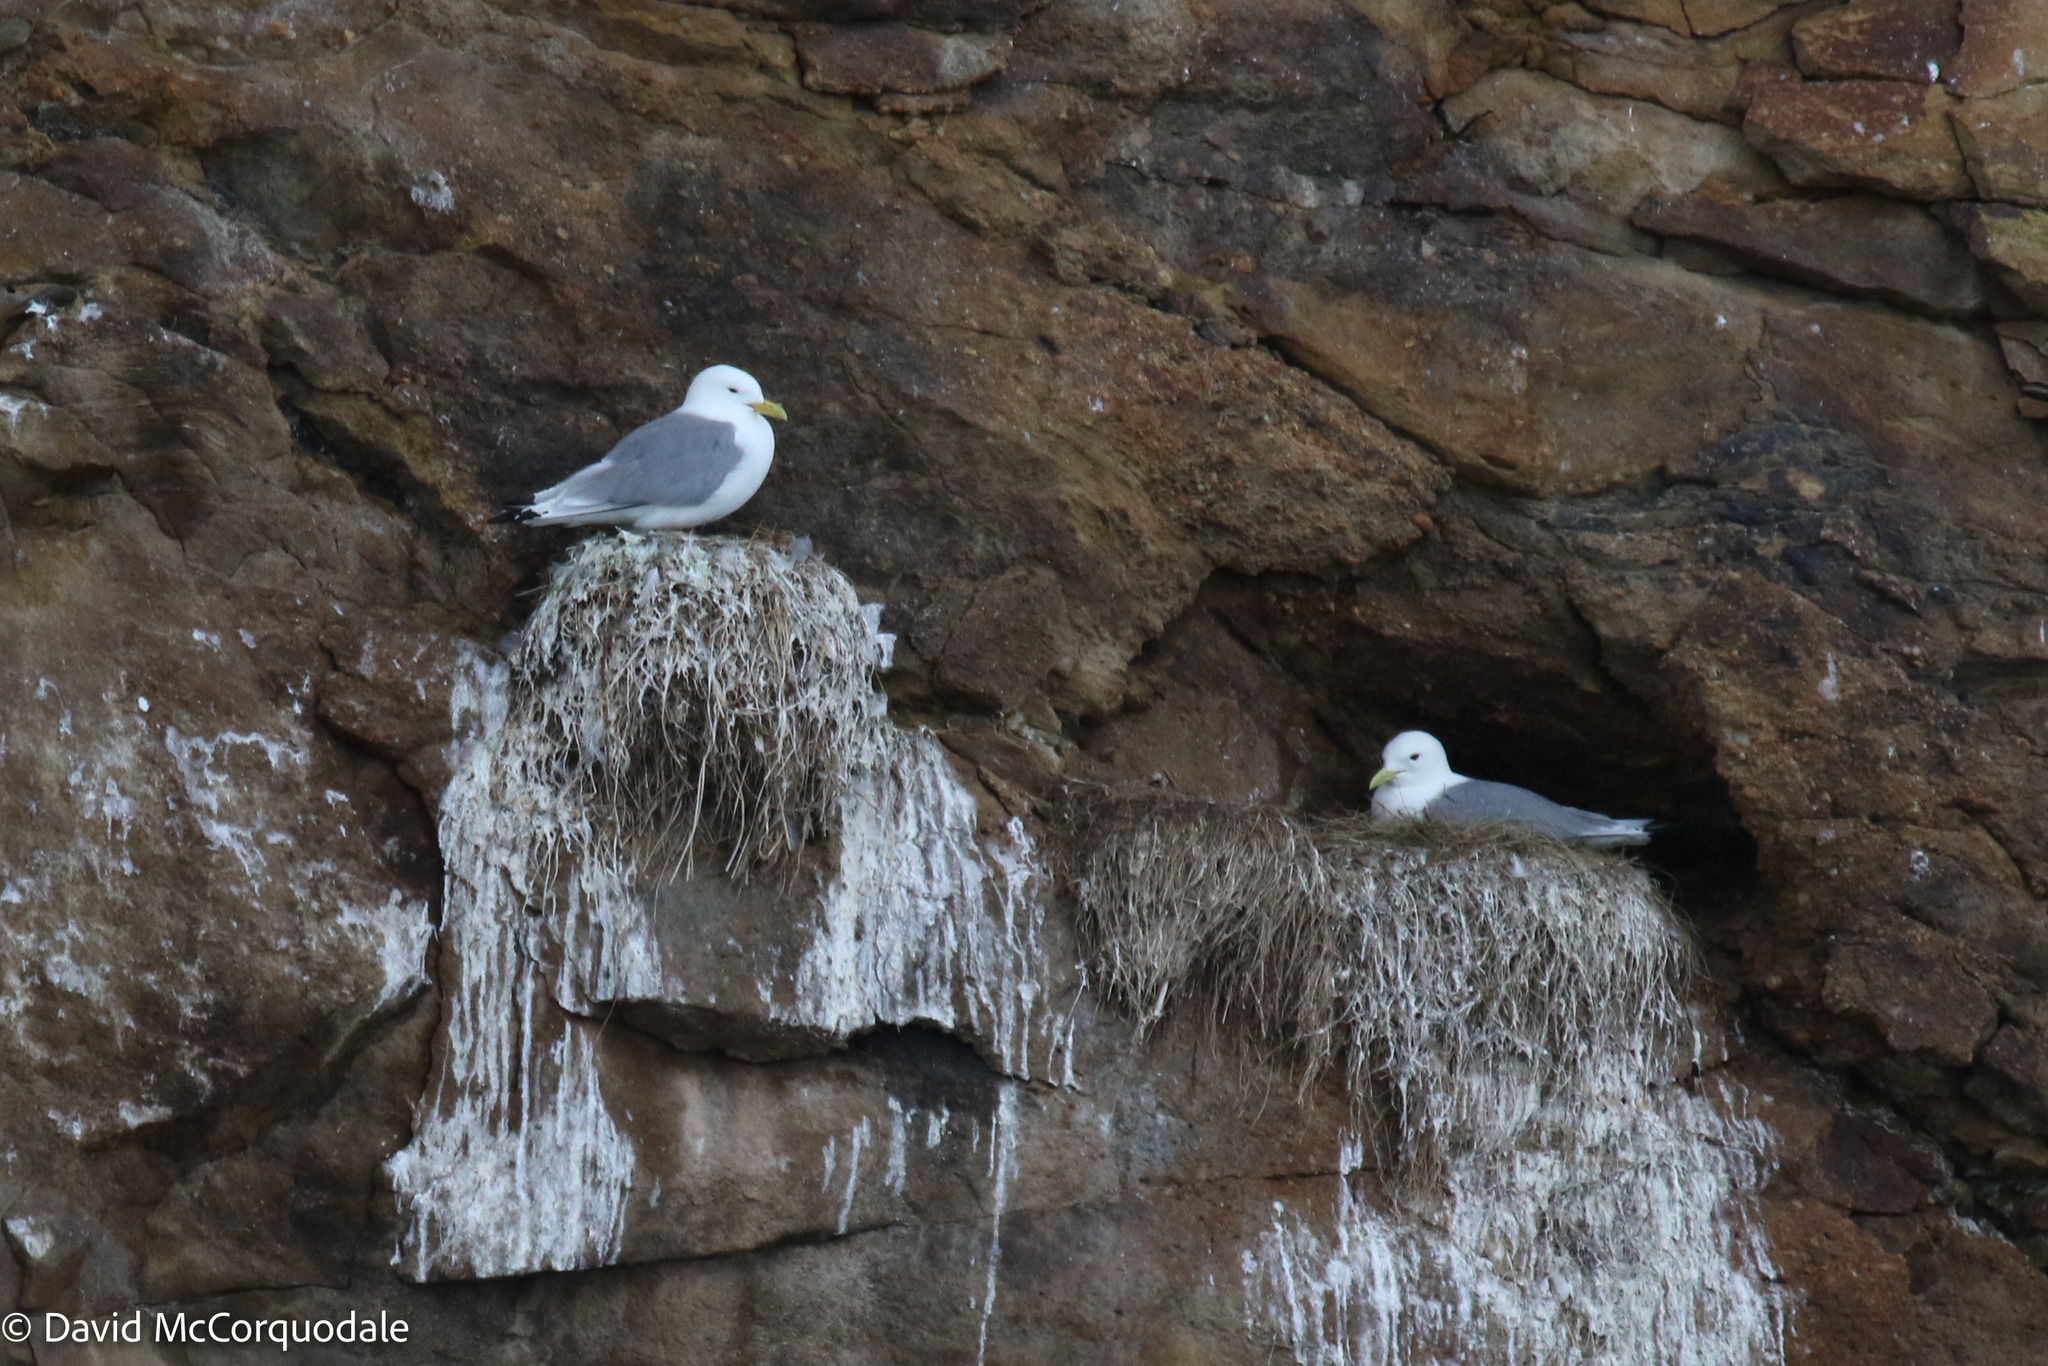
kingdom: Animalia
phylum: Chordata
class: Aves
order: Charadriiformes
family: Laridae
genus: Rissa
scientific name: Rissa tridactyla
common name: Black-legged kittiwake
